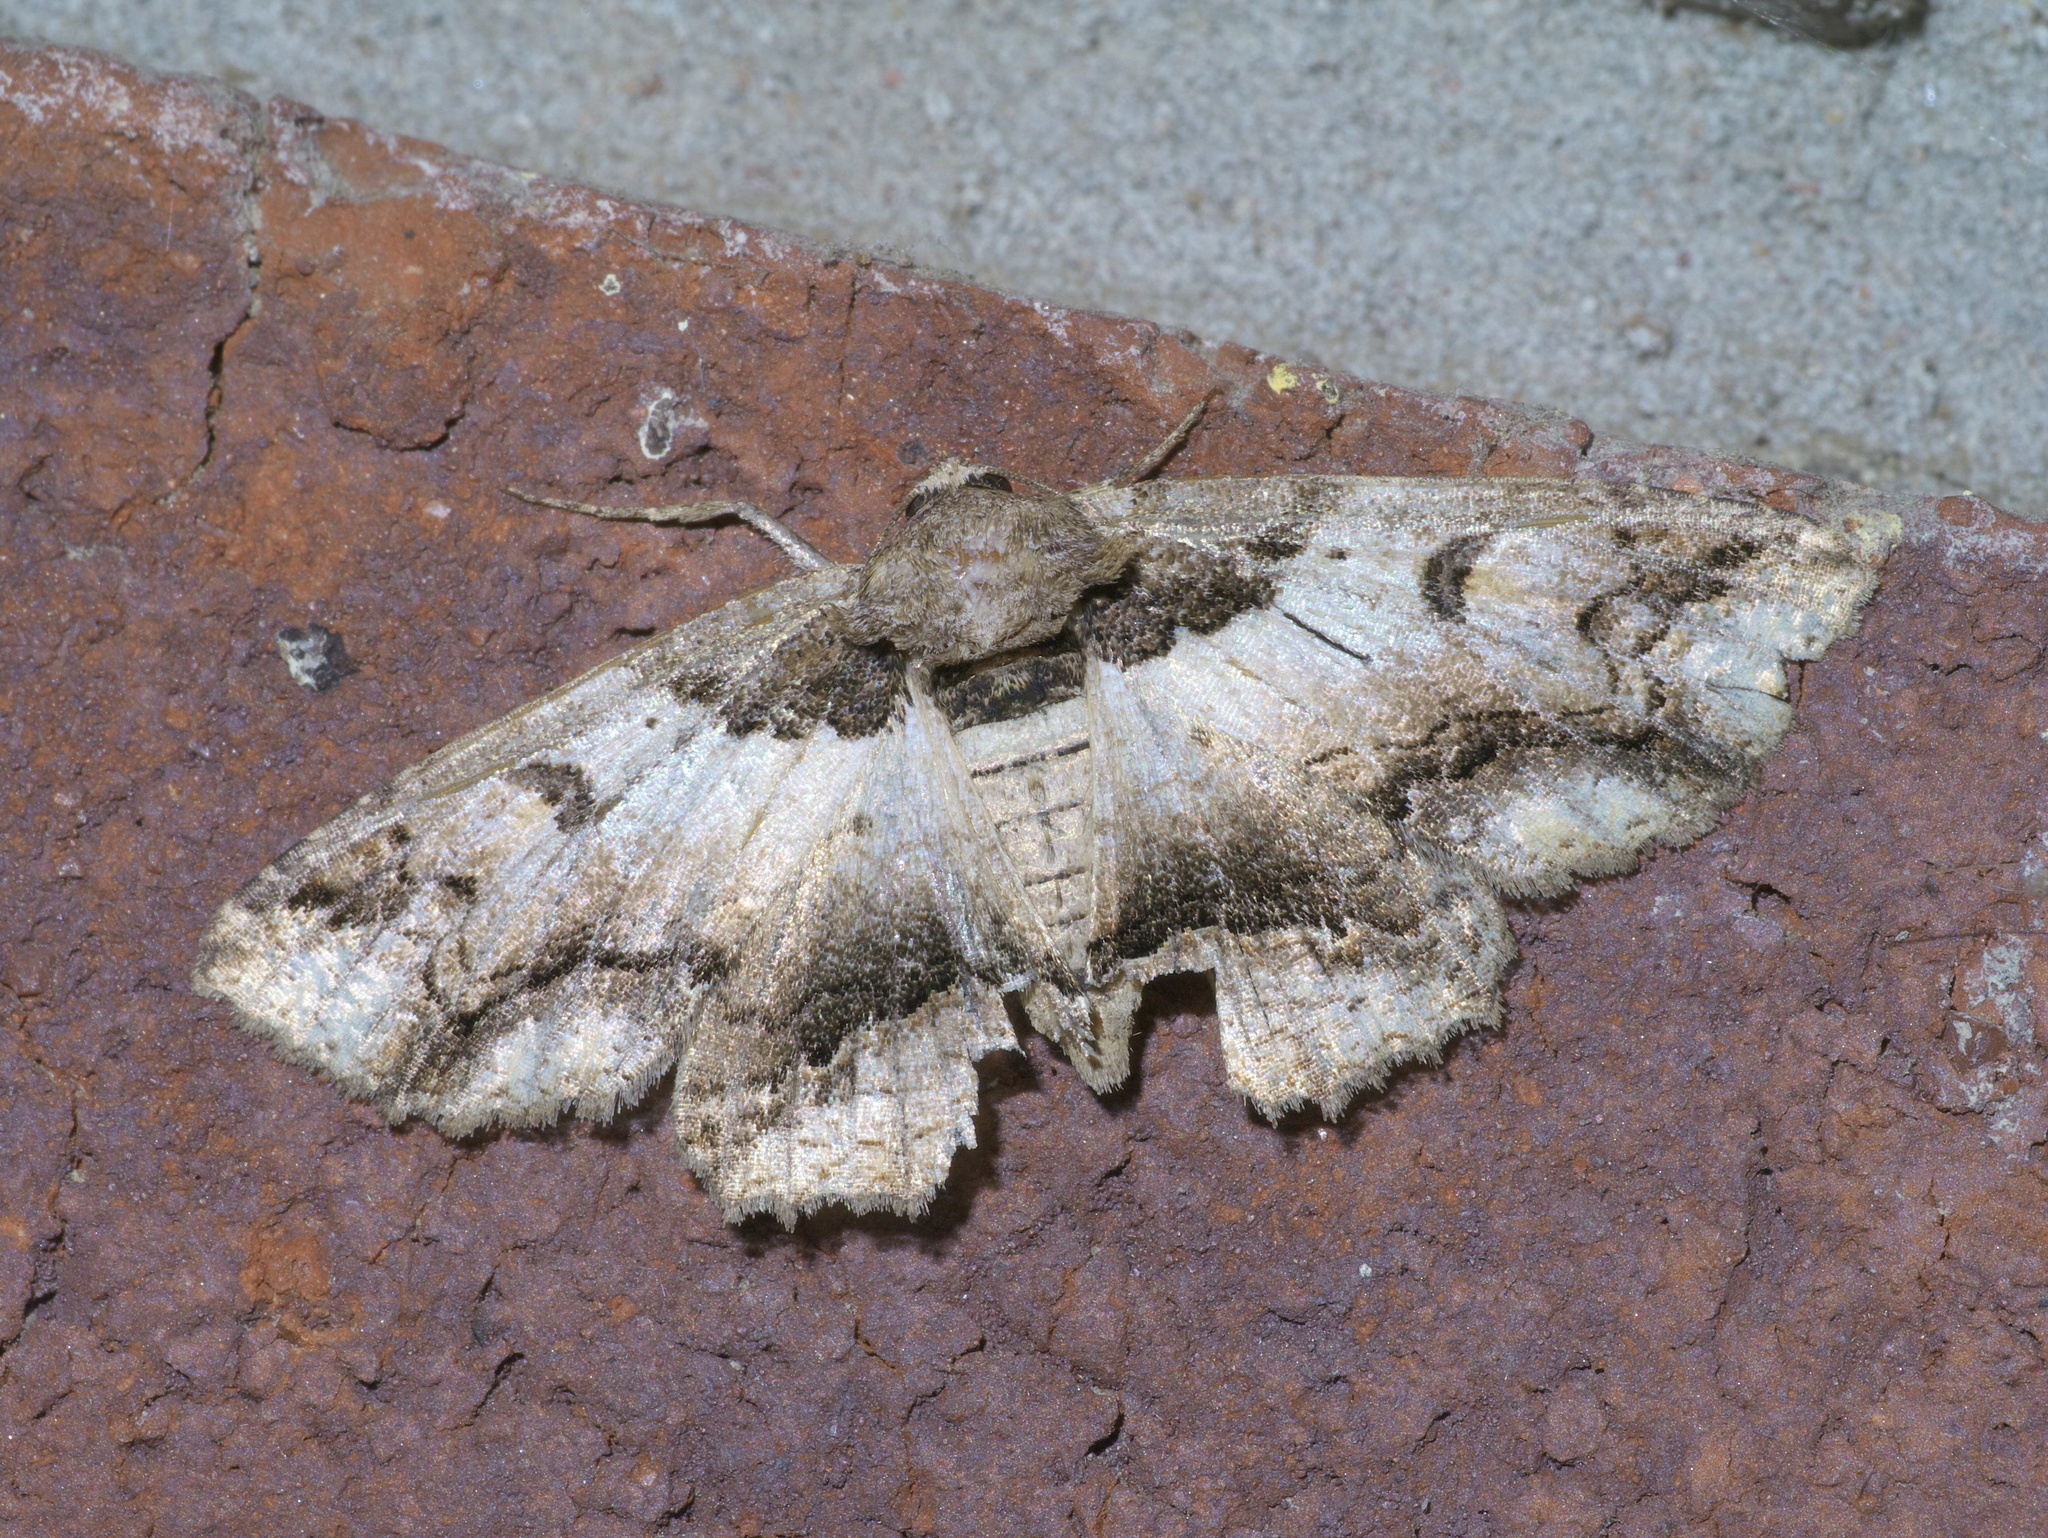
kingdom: Animalia
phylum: Arthropoda
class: Insecta
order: Lepidoptera
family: Erebidae
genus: Zale
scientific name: Zale galbanata
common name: Maple zale
